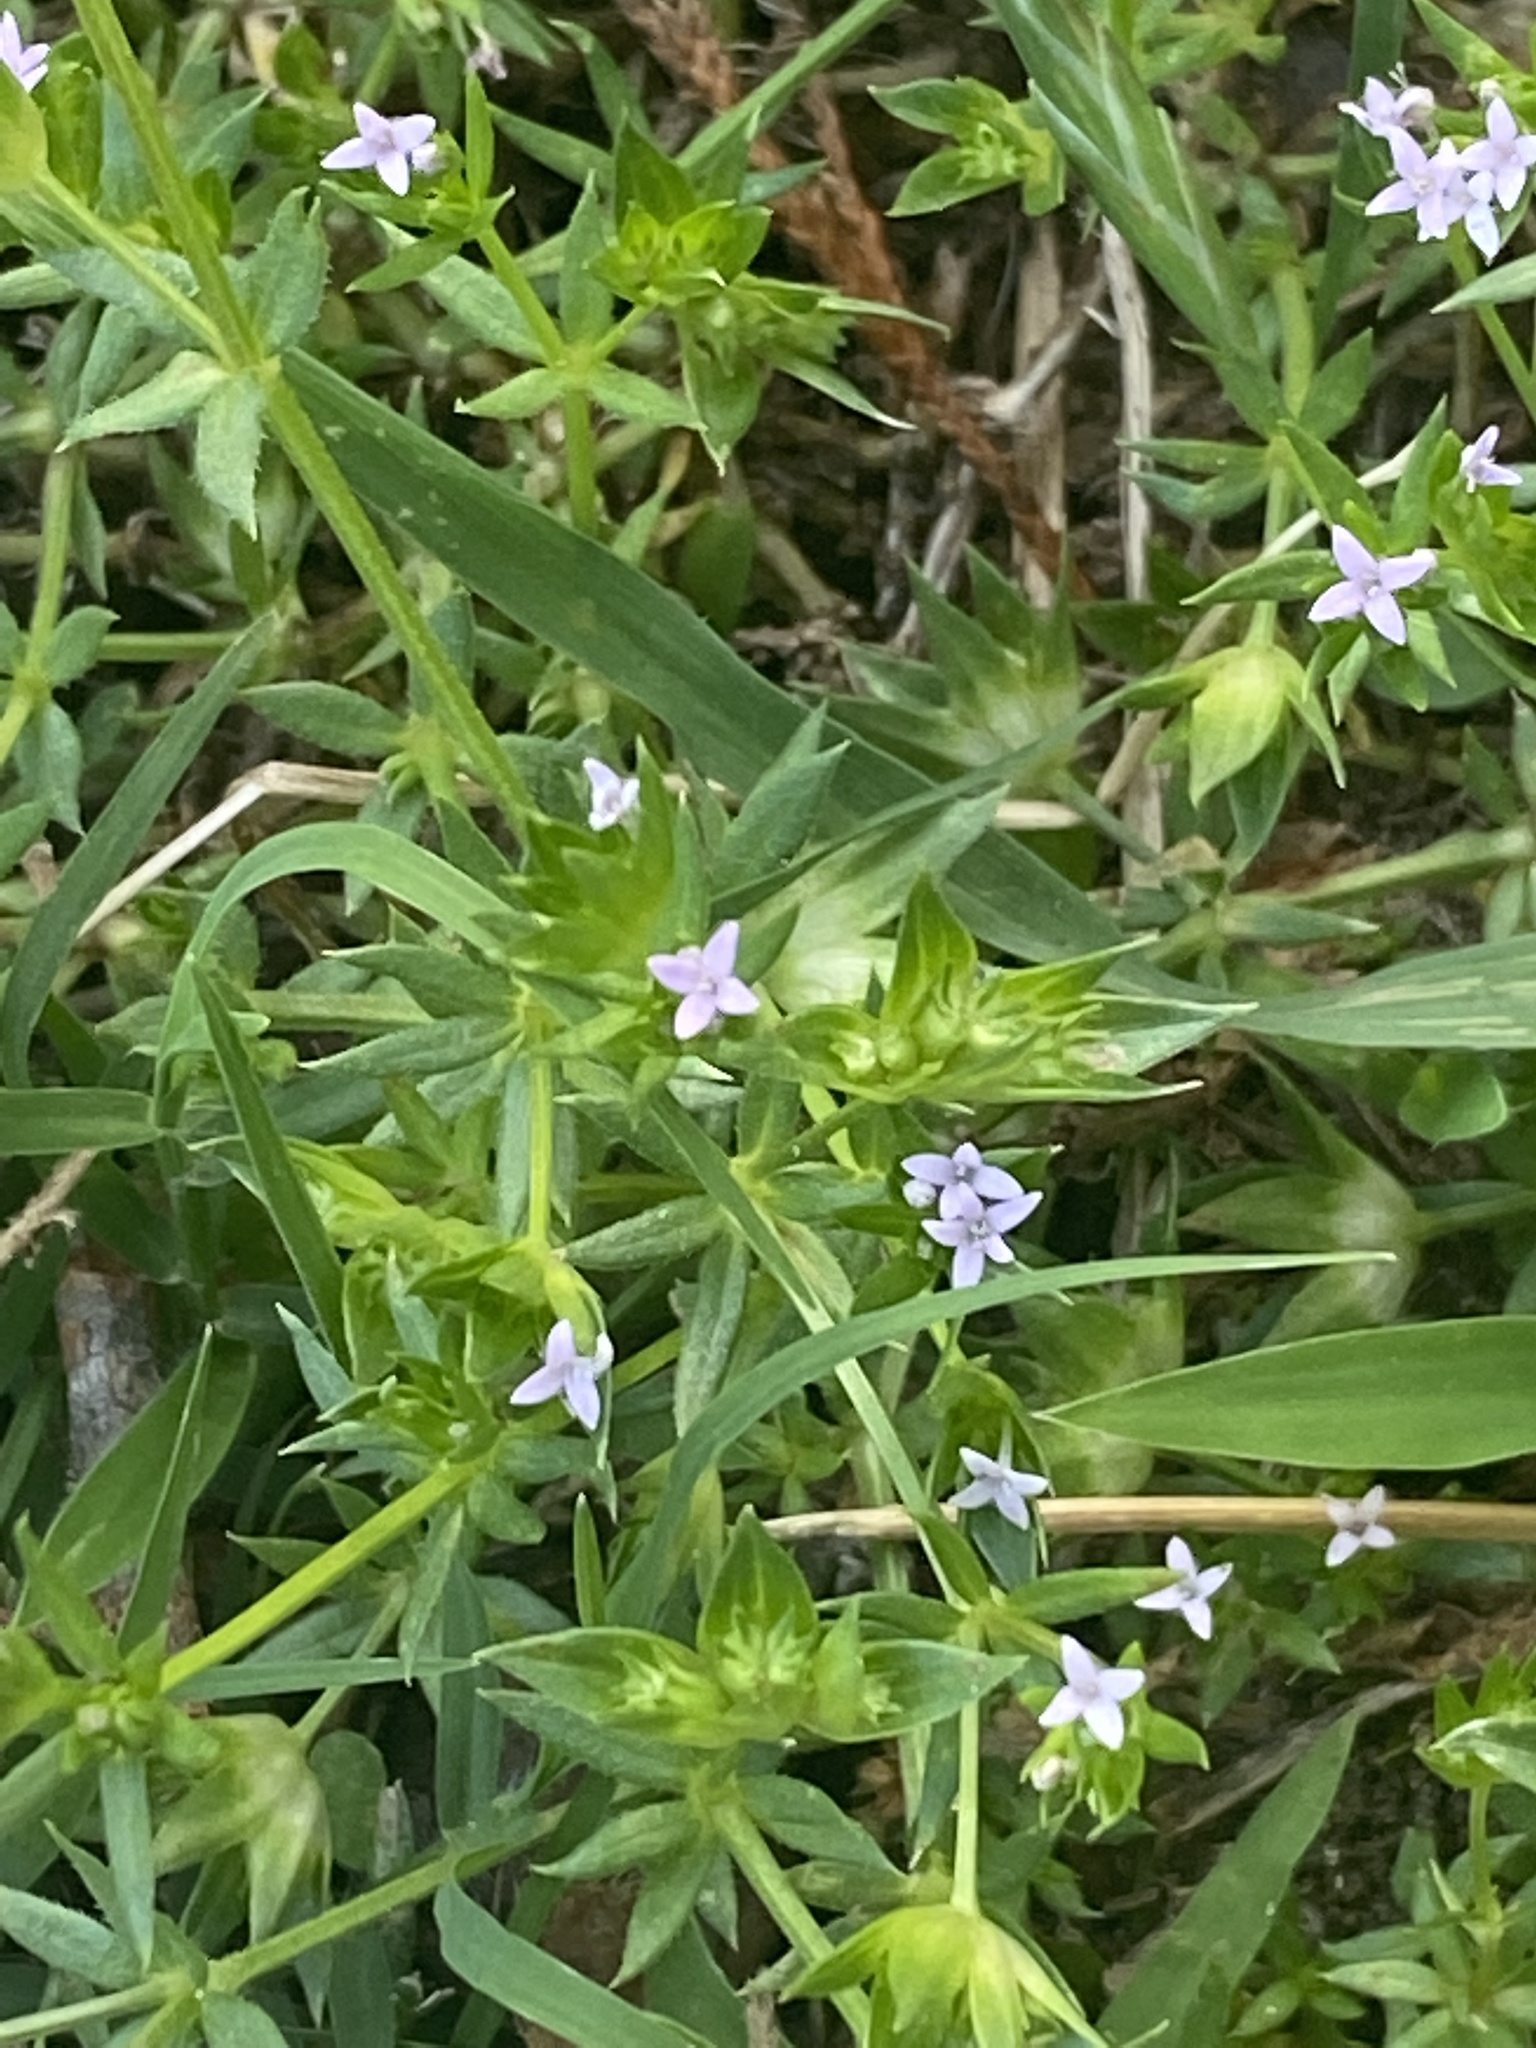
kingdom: Plantae
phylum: Tracheophyta
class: Magnoliopsida
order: Gentianales
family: Rubiaceae
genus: Sherardia
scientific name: Sherardia arvensis
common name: Field madder
